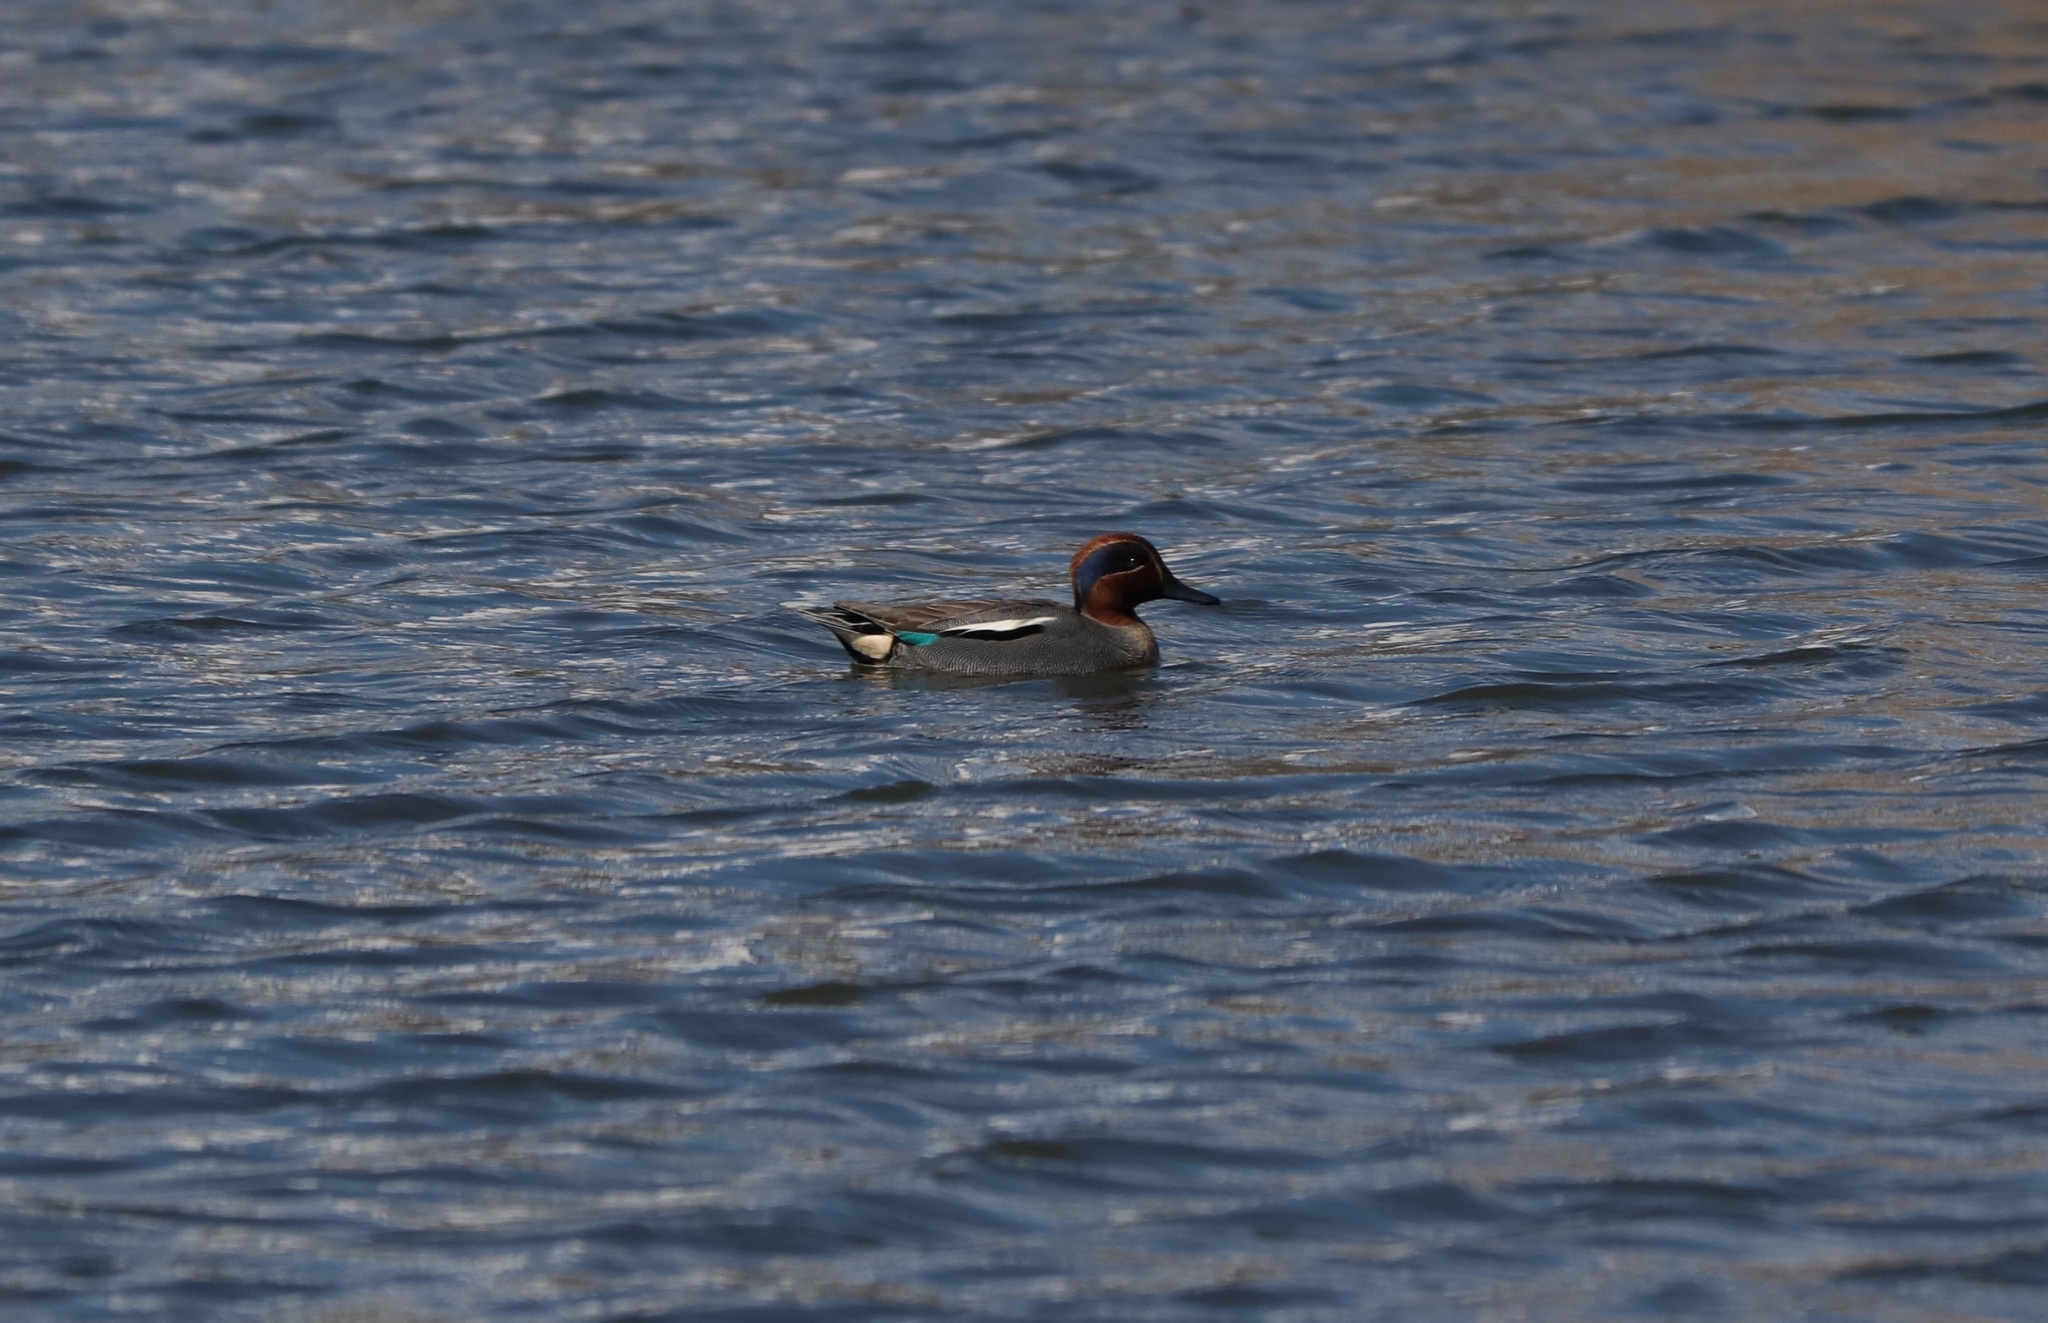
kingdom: Animalia
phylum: Chordata
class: Aves
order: Anseriformes
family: Anatidae
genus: Anas
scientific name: Anas crecca
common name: Eurasian teal
